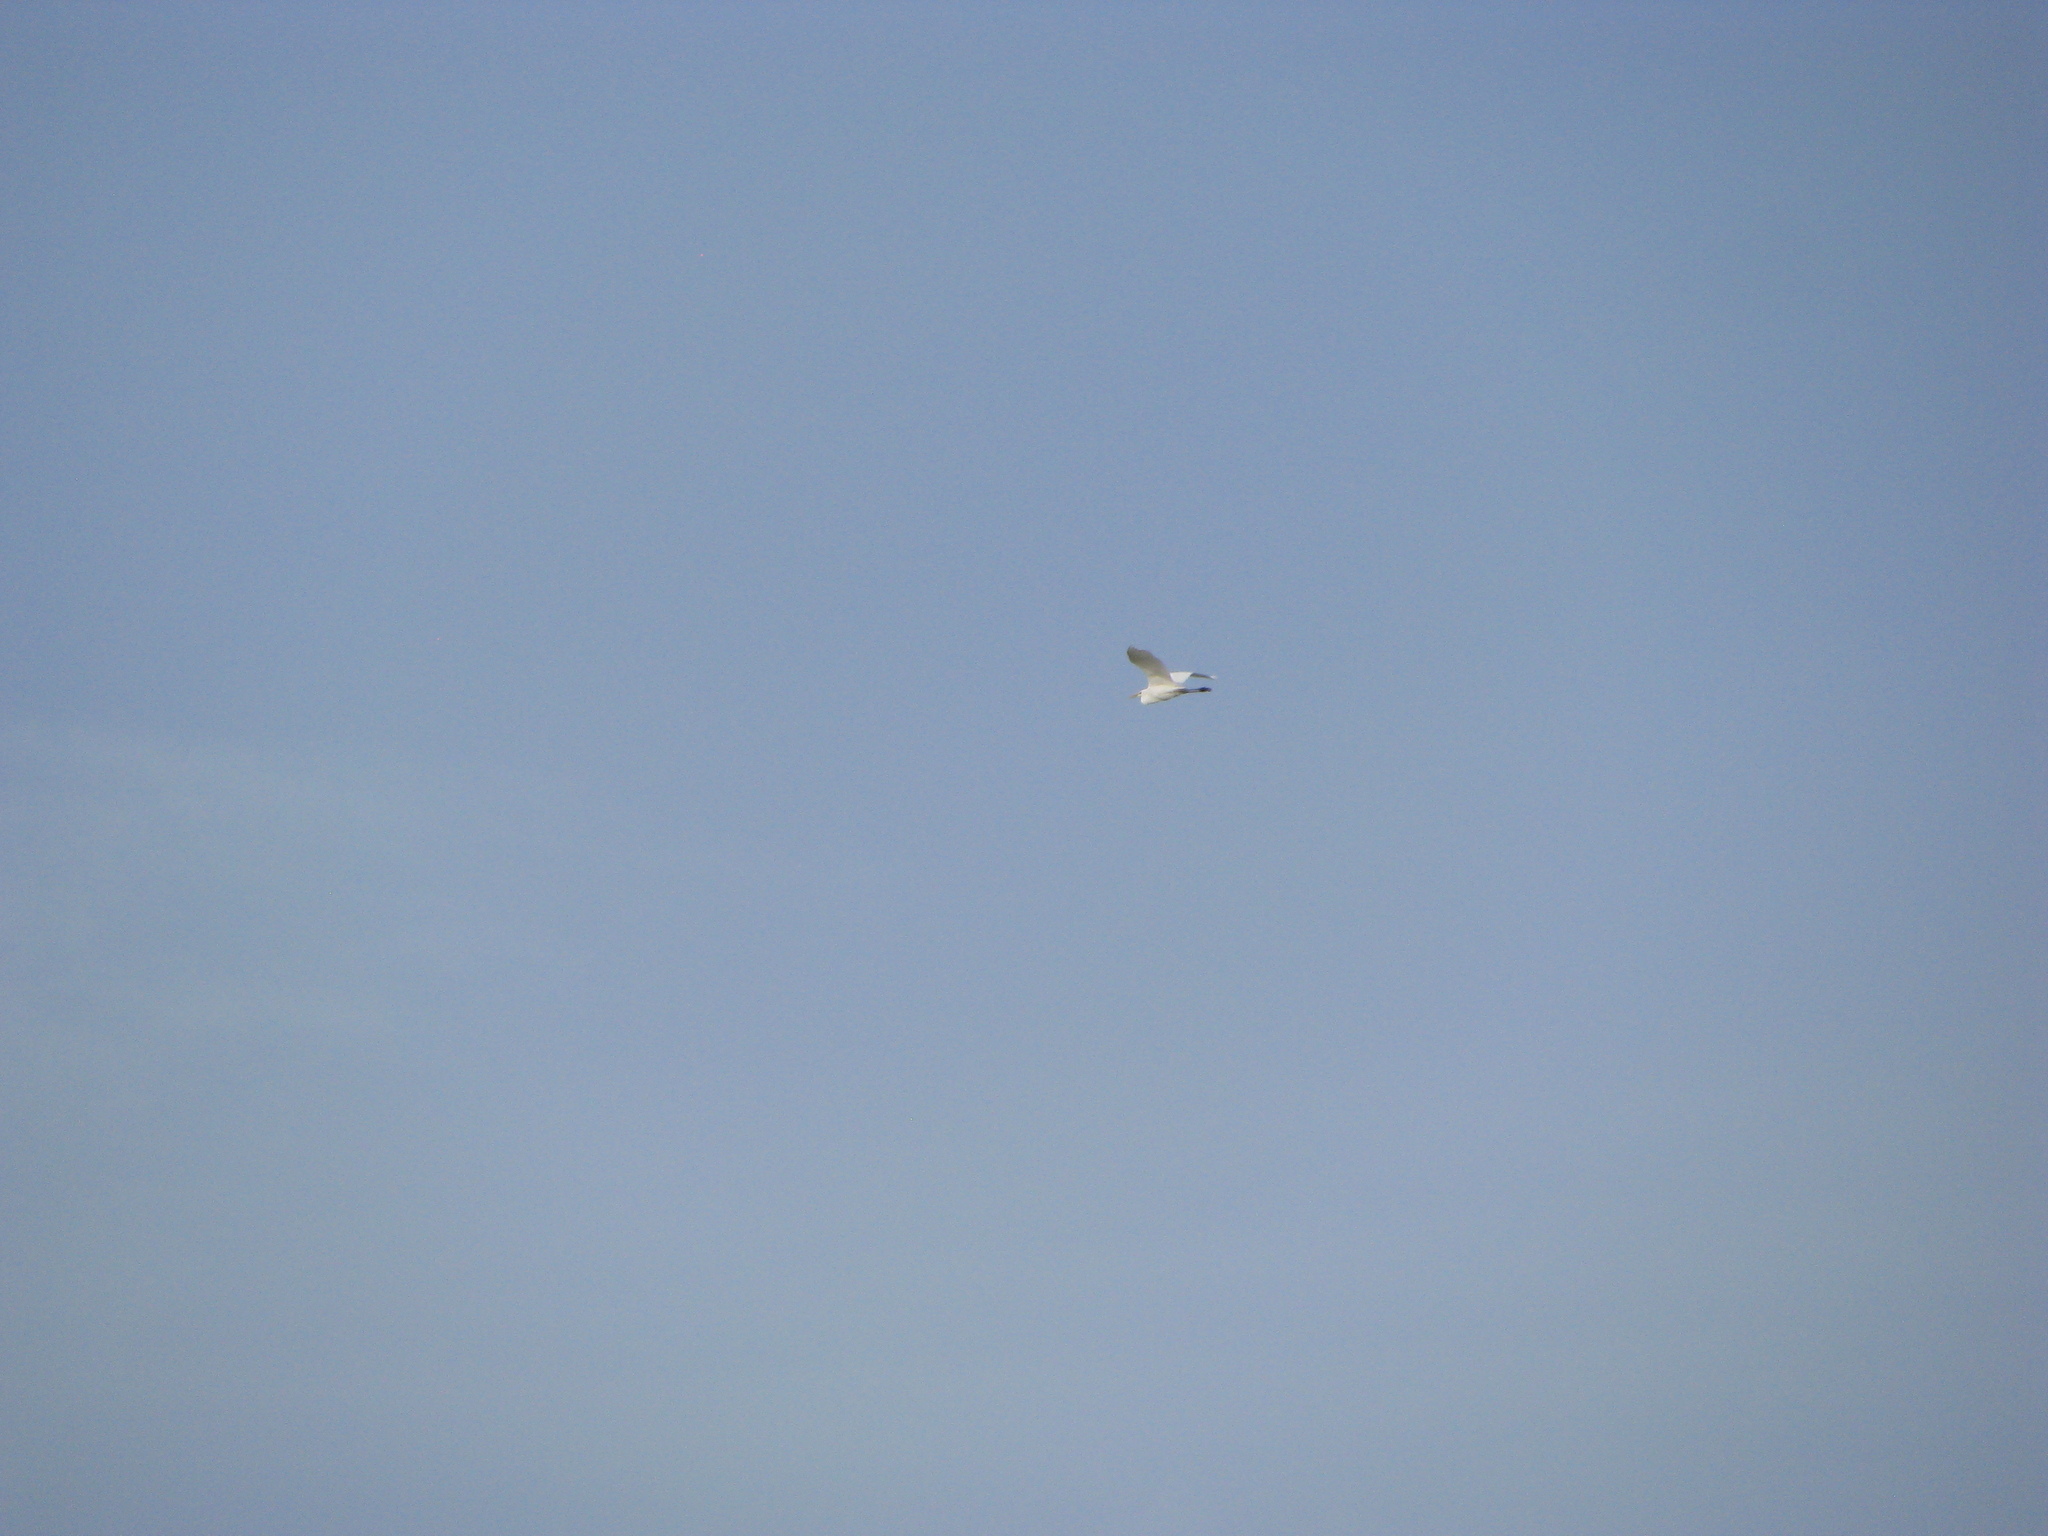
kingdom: Animalia
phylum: Chordata
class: Aves
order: Pelecaniformes
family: Ardeidae
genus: Ardea
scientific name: Ardea alba
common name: Great egret
